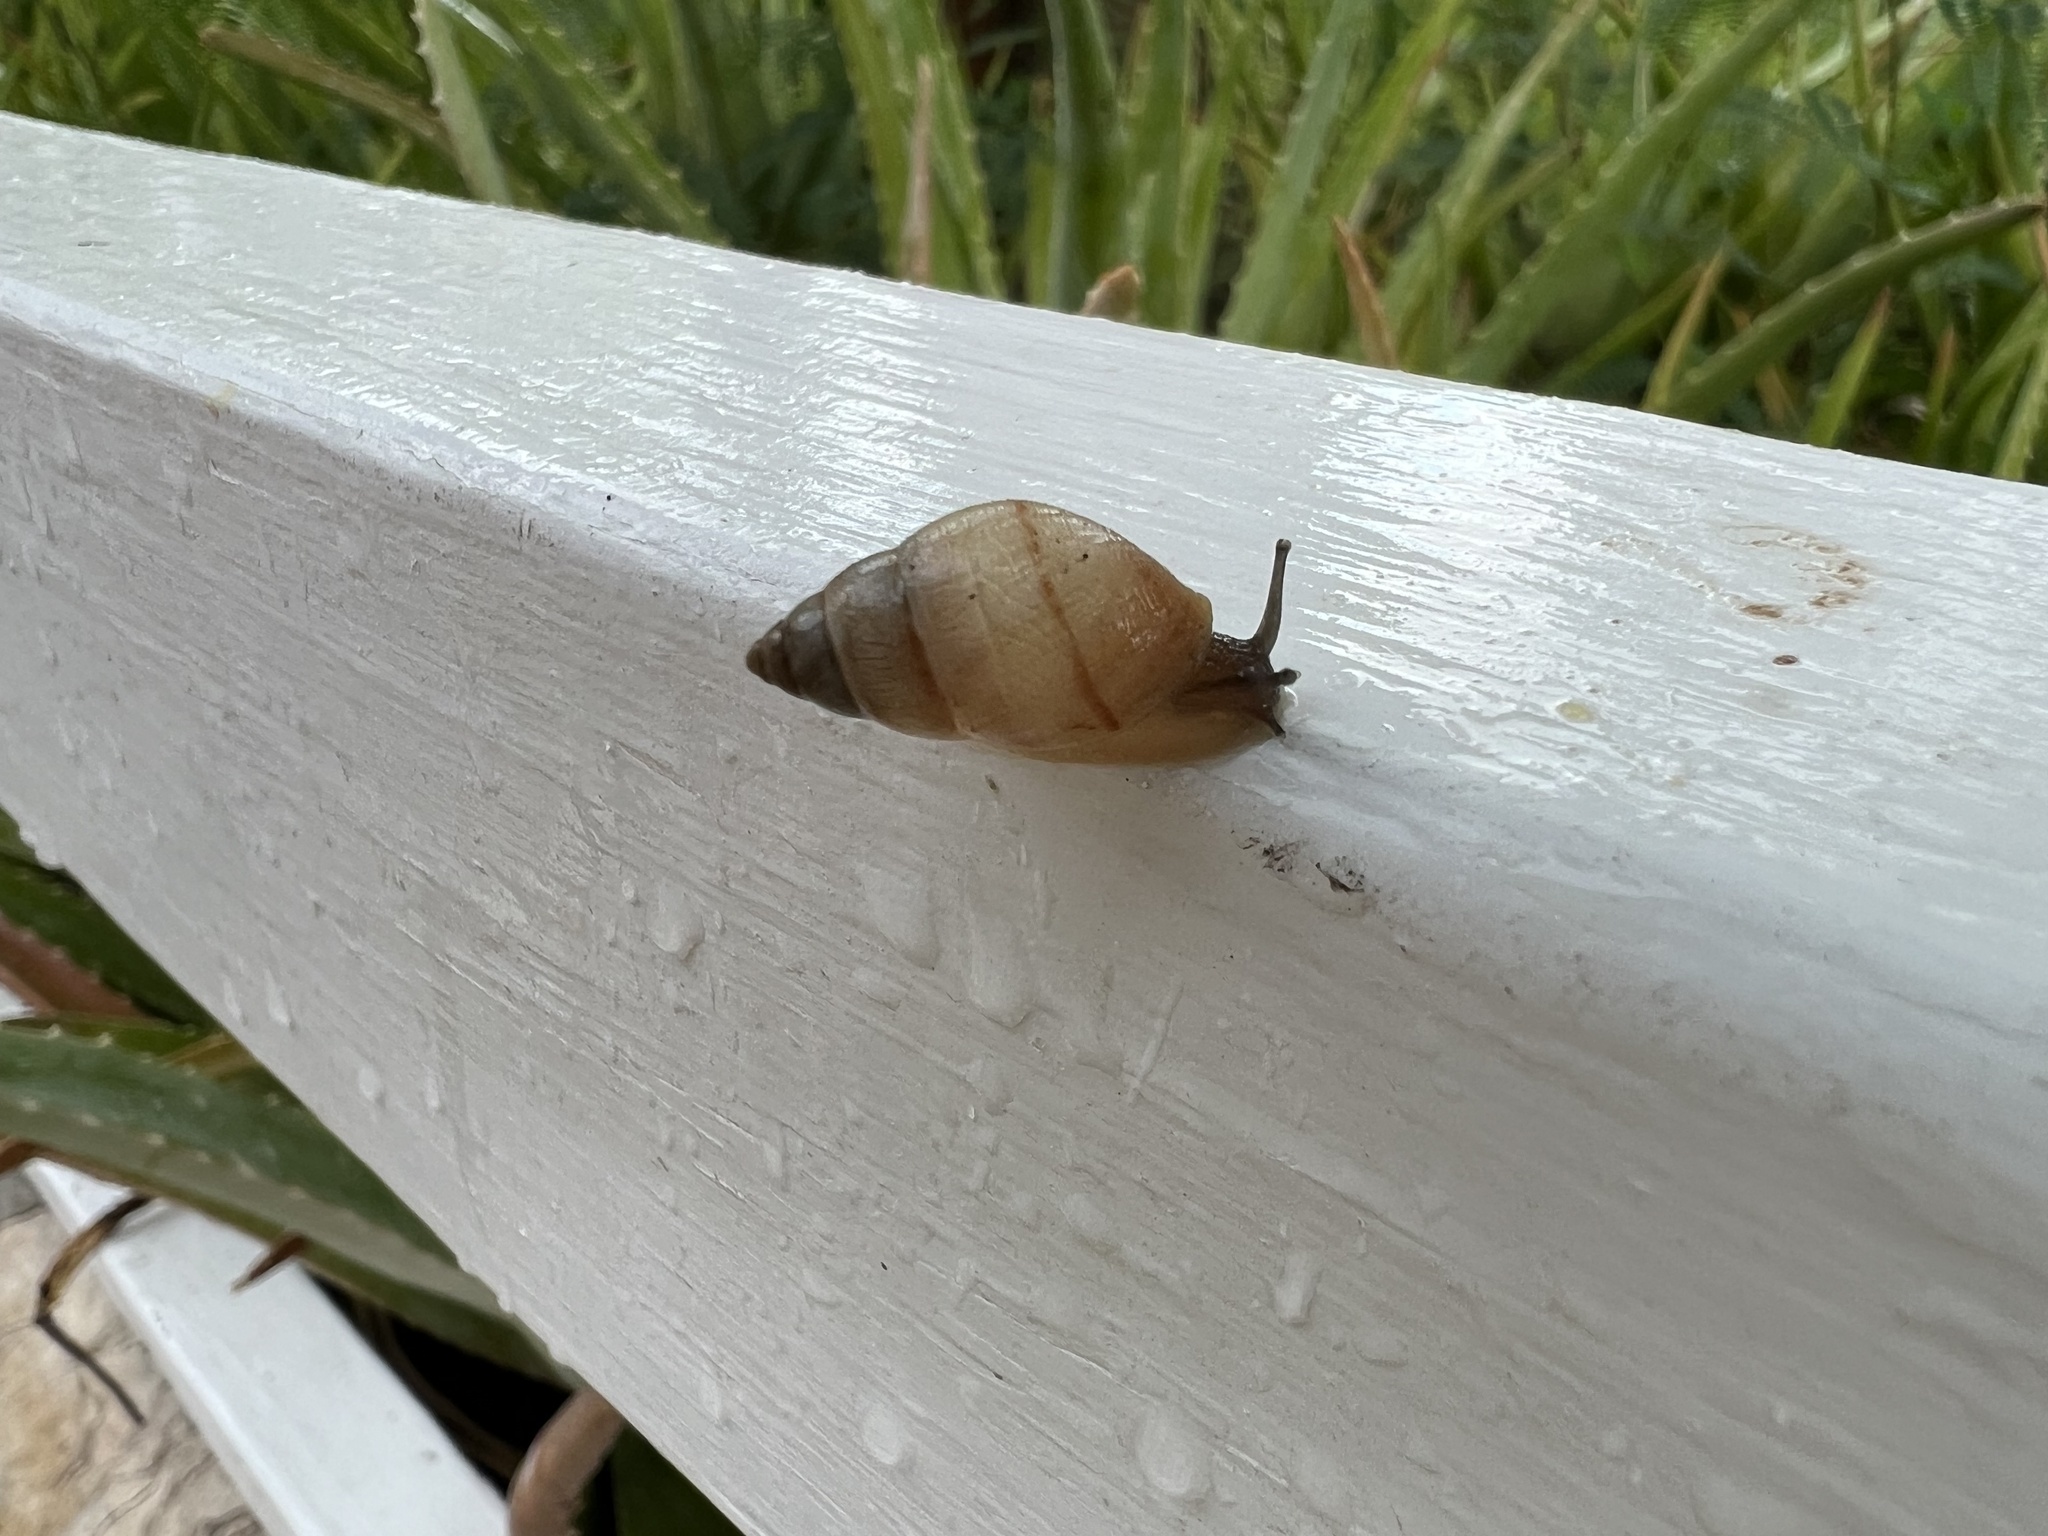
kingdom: Animalia
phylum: Mollusca
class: Gastropoda
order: Stylommatophora
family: Bulimulidae
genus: Bulimulus
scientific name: Bulimulus guadalupensis
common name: West indian bulimulus
